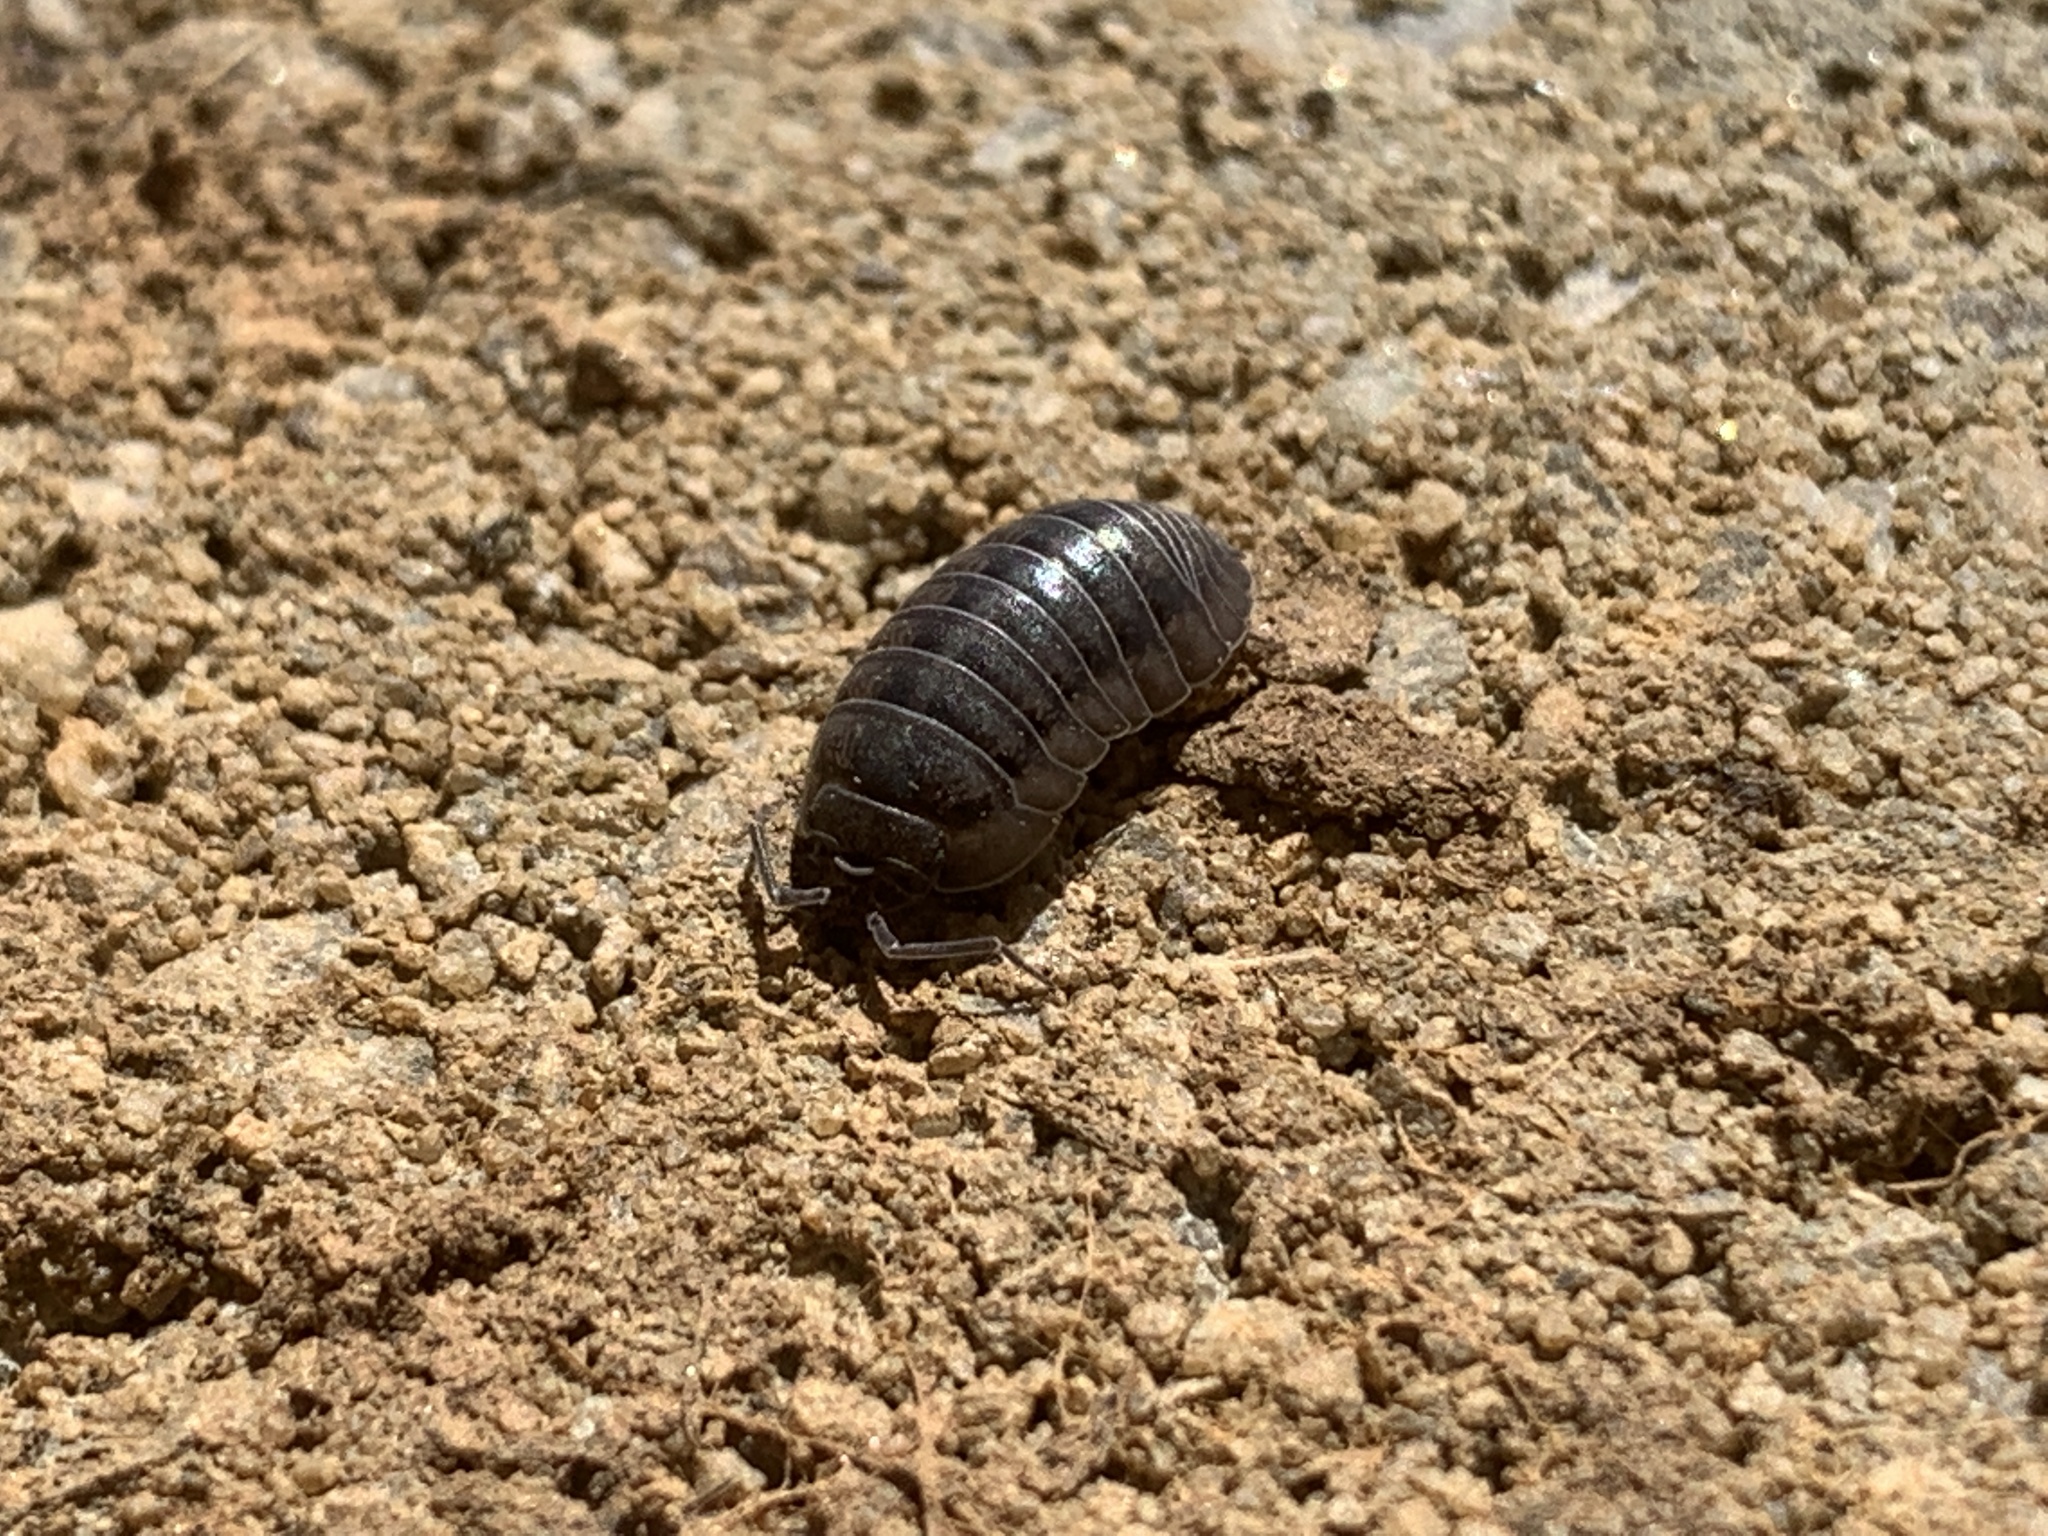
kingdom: Animalia
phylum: Arthropoda
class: Malacostraca
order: Isopoda
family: Armadillidiidae
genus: Armadillidium
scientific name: Armadillidium nasatum
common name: Isopod
